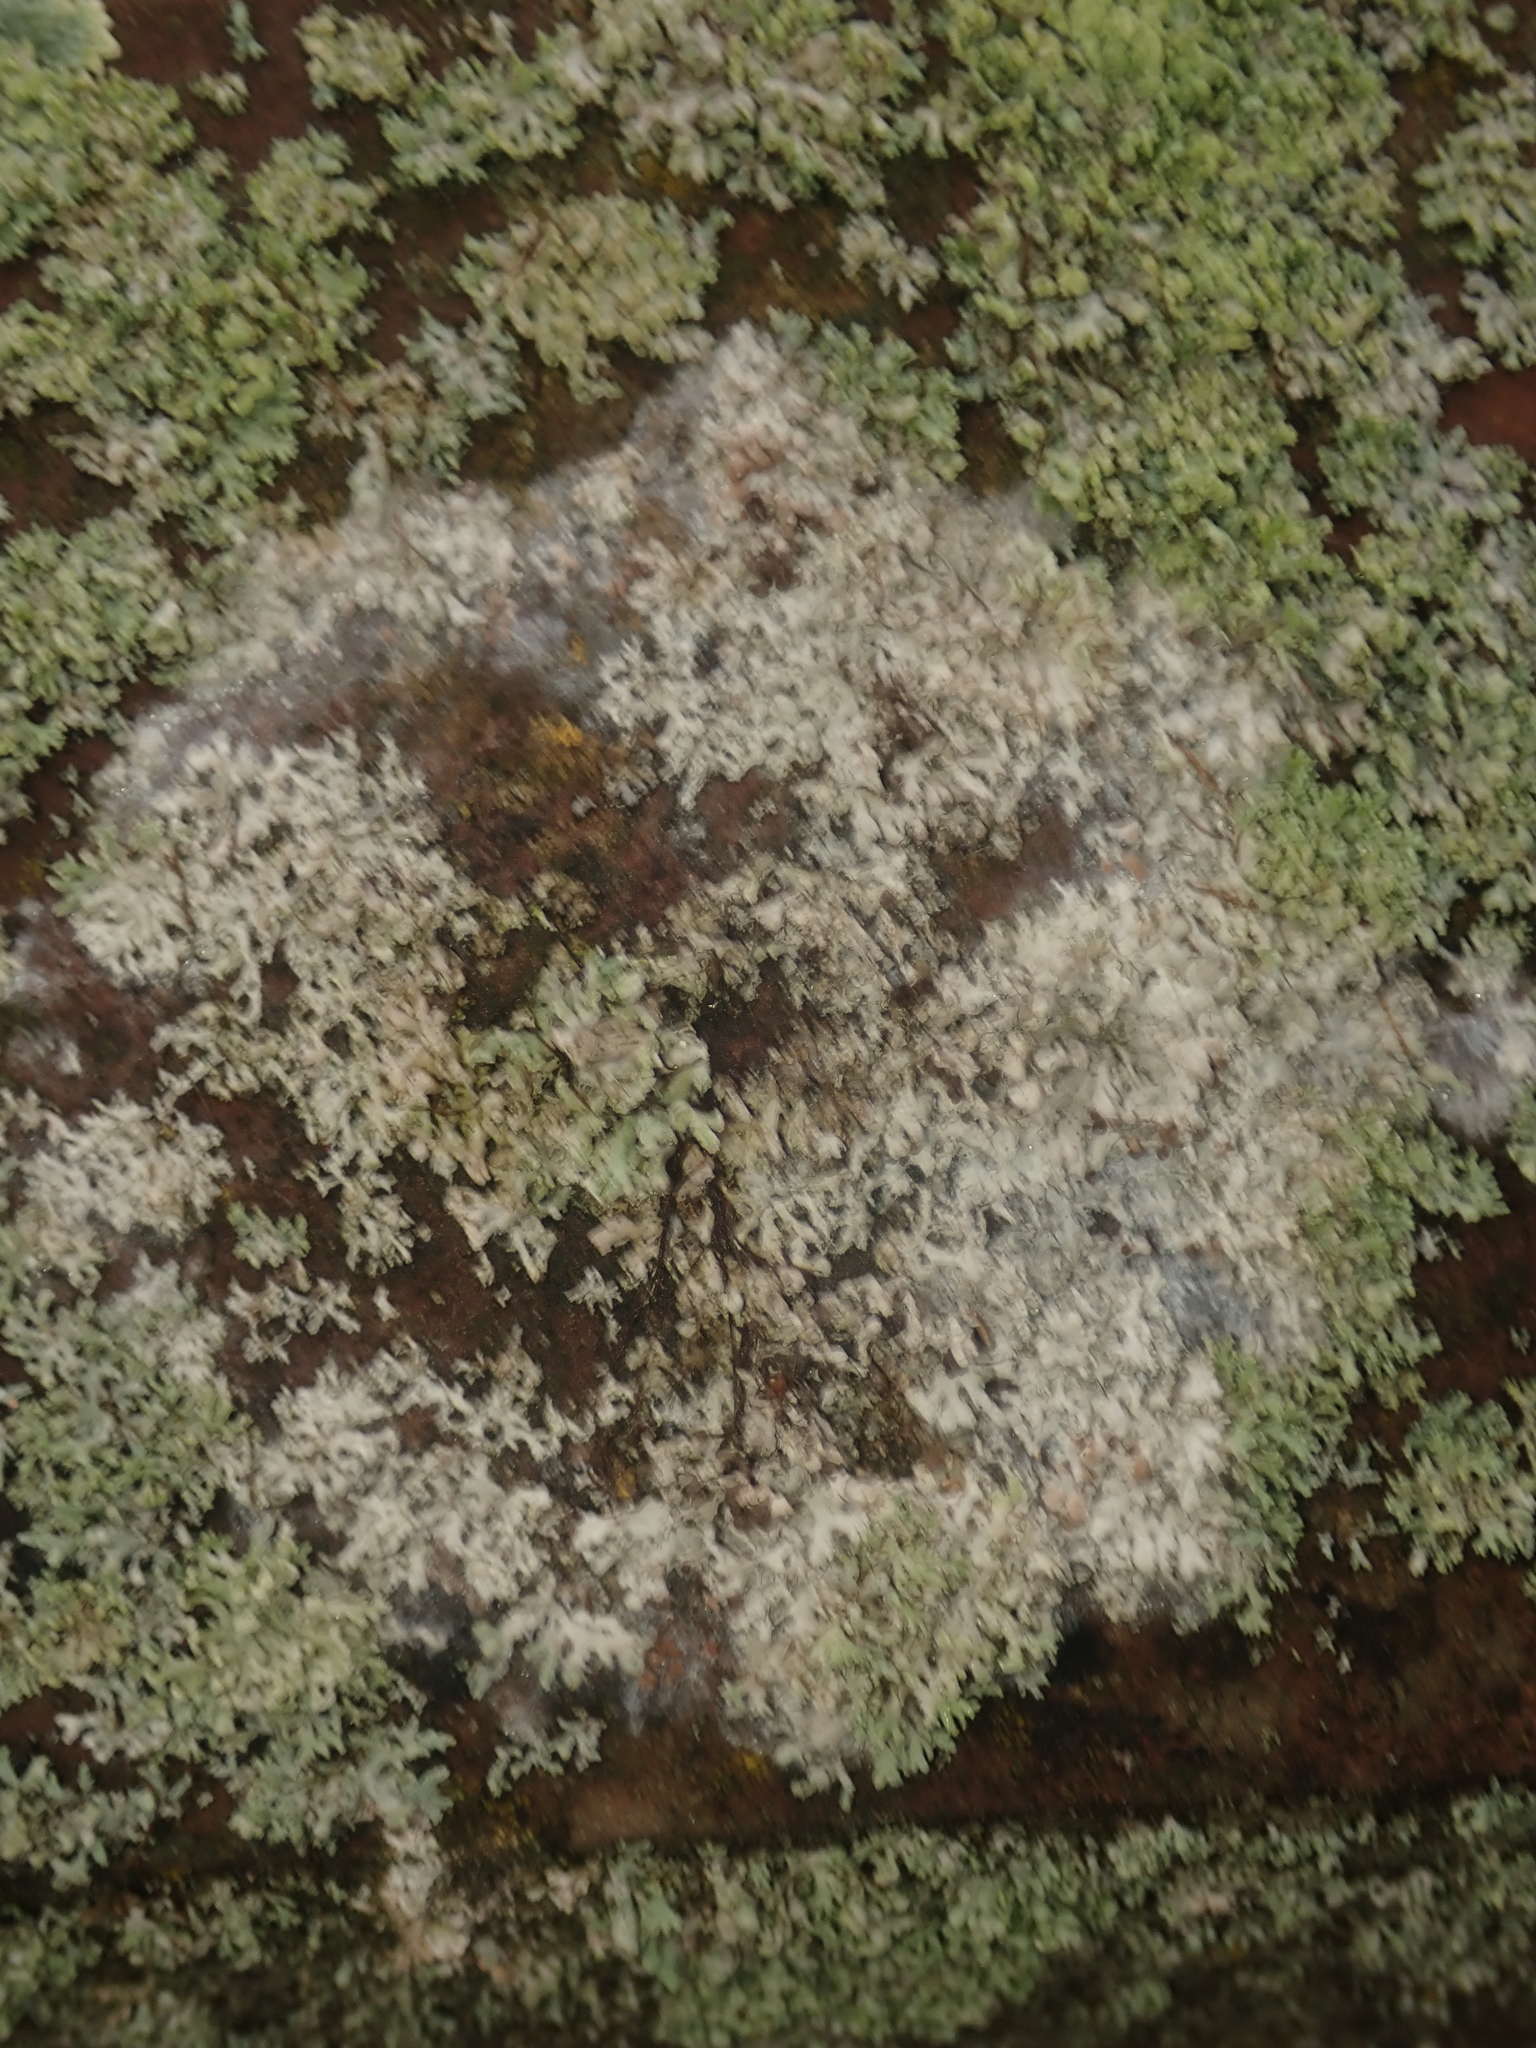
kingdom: Fungi
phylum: Basidiomycota
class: Agaricomycetes
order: Atheliales
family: Atheliaceae
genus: Athelia
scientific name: Athelia arachnoidea
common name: Candelabra duster
